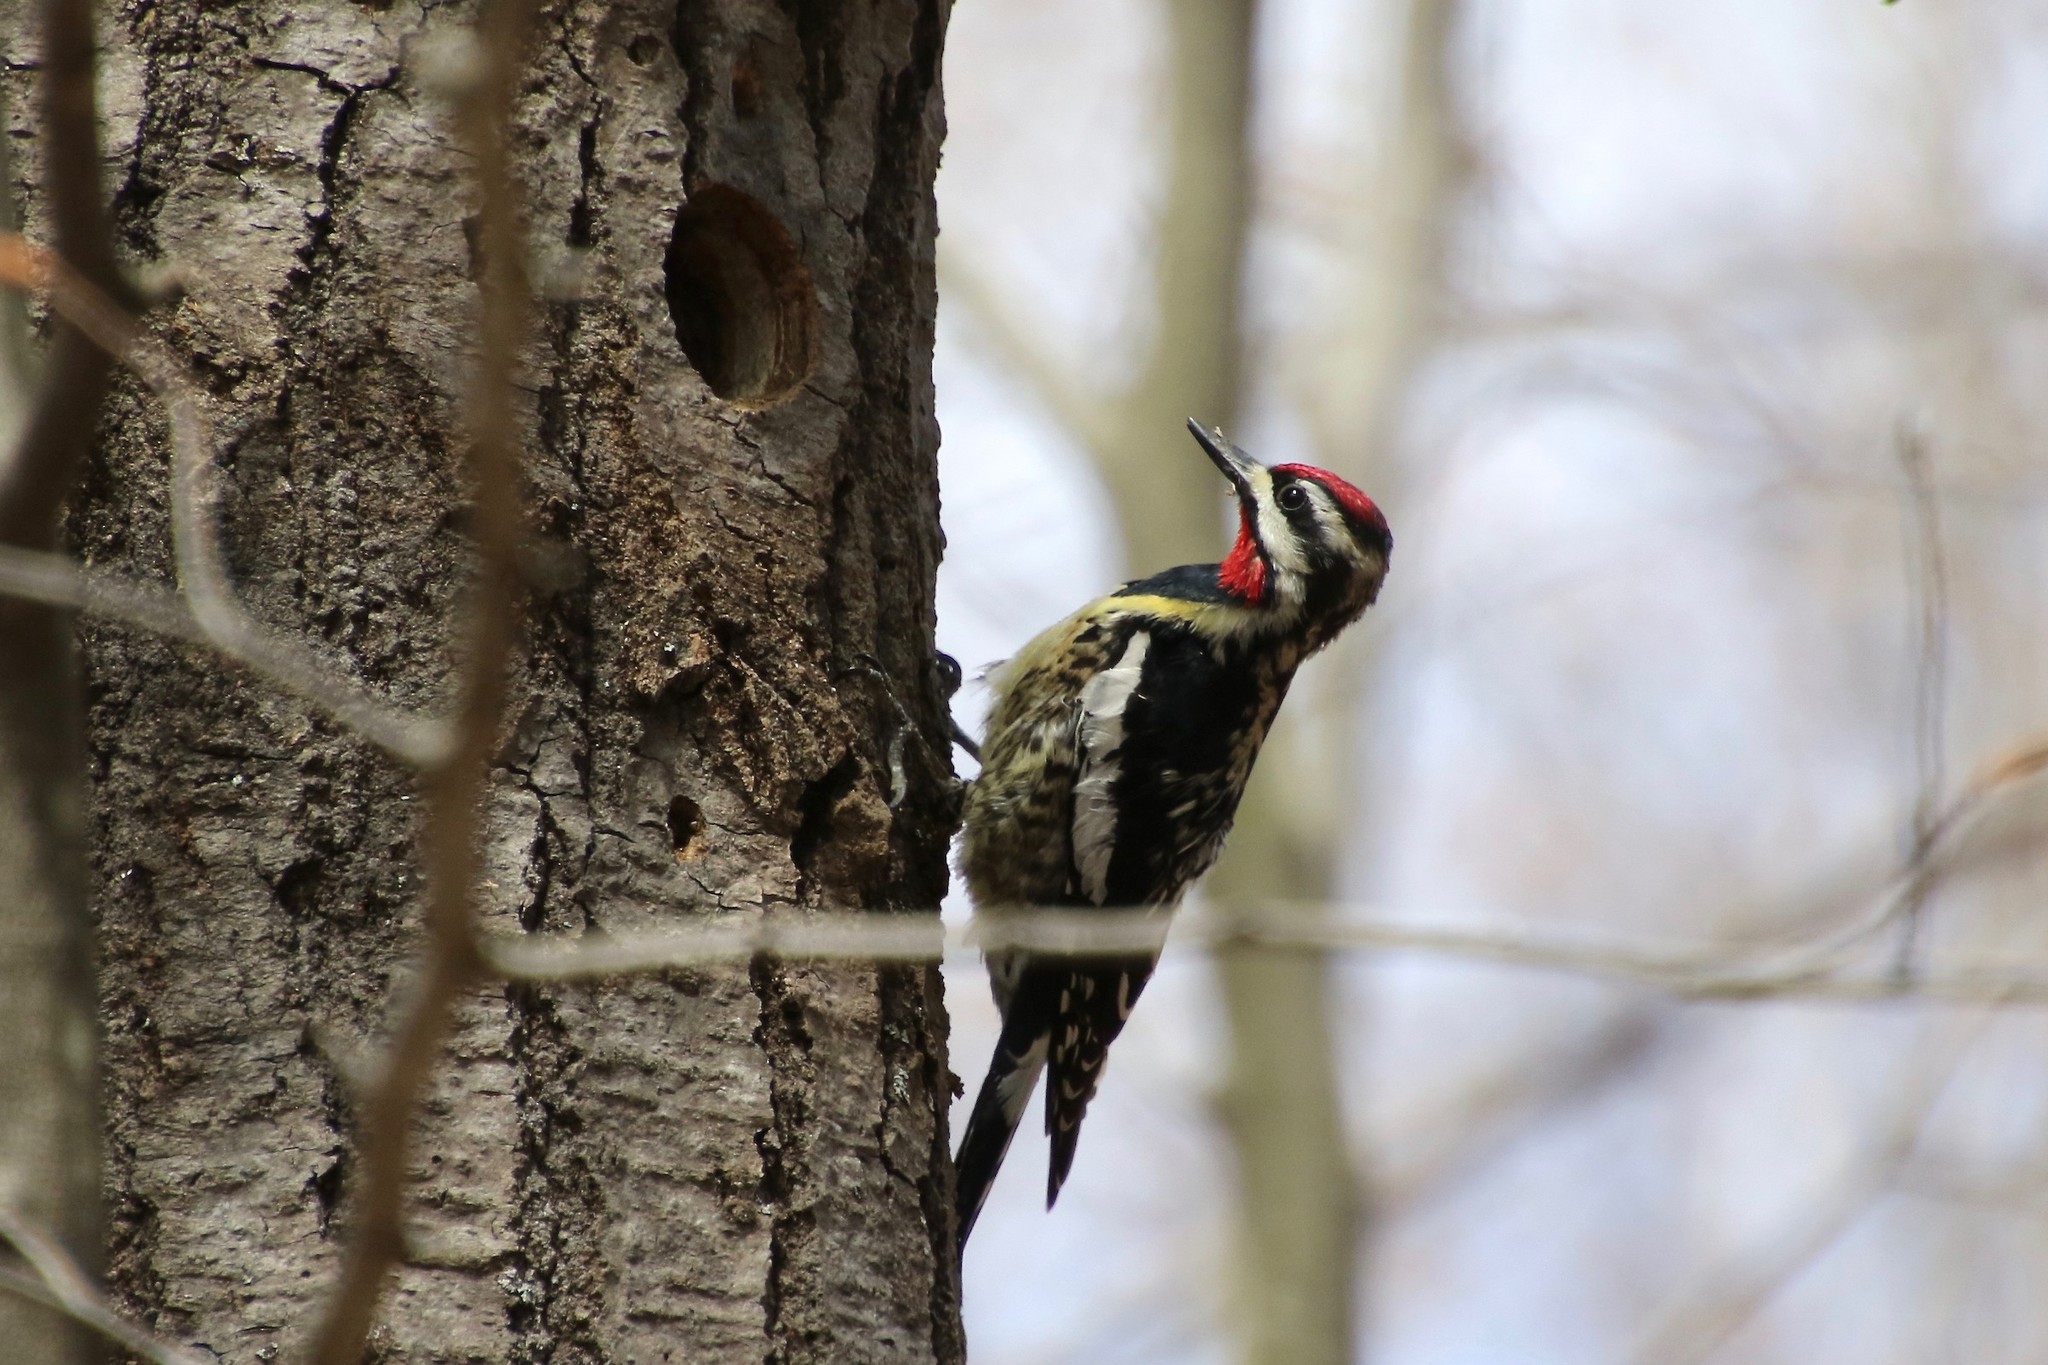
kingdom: Animalia
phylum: Chordata
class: Aves
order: Piciformes
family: Picidae
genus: Sphyrapicus
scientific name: Sphyrapicus varius
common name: Yellow-bellied sapsucker
